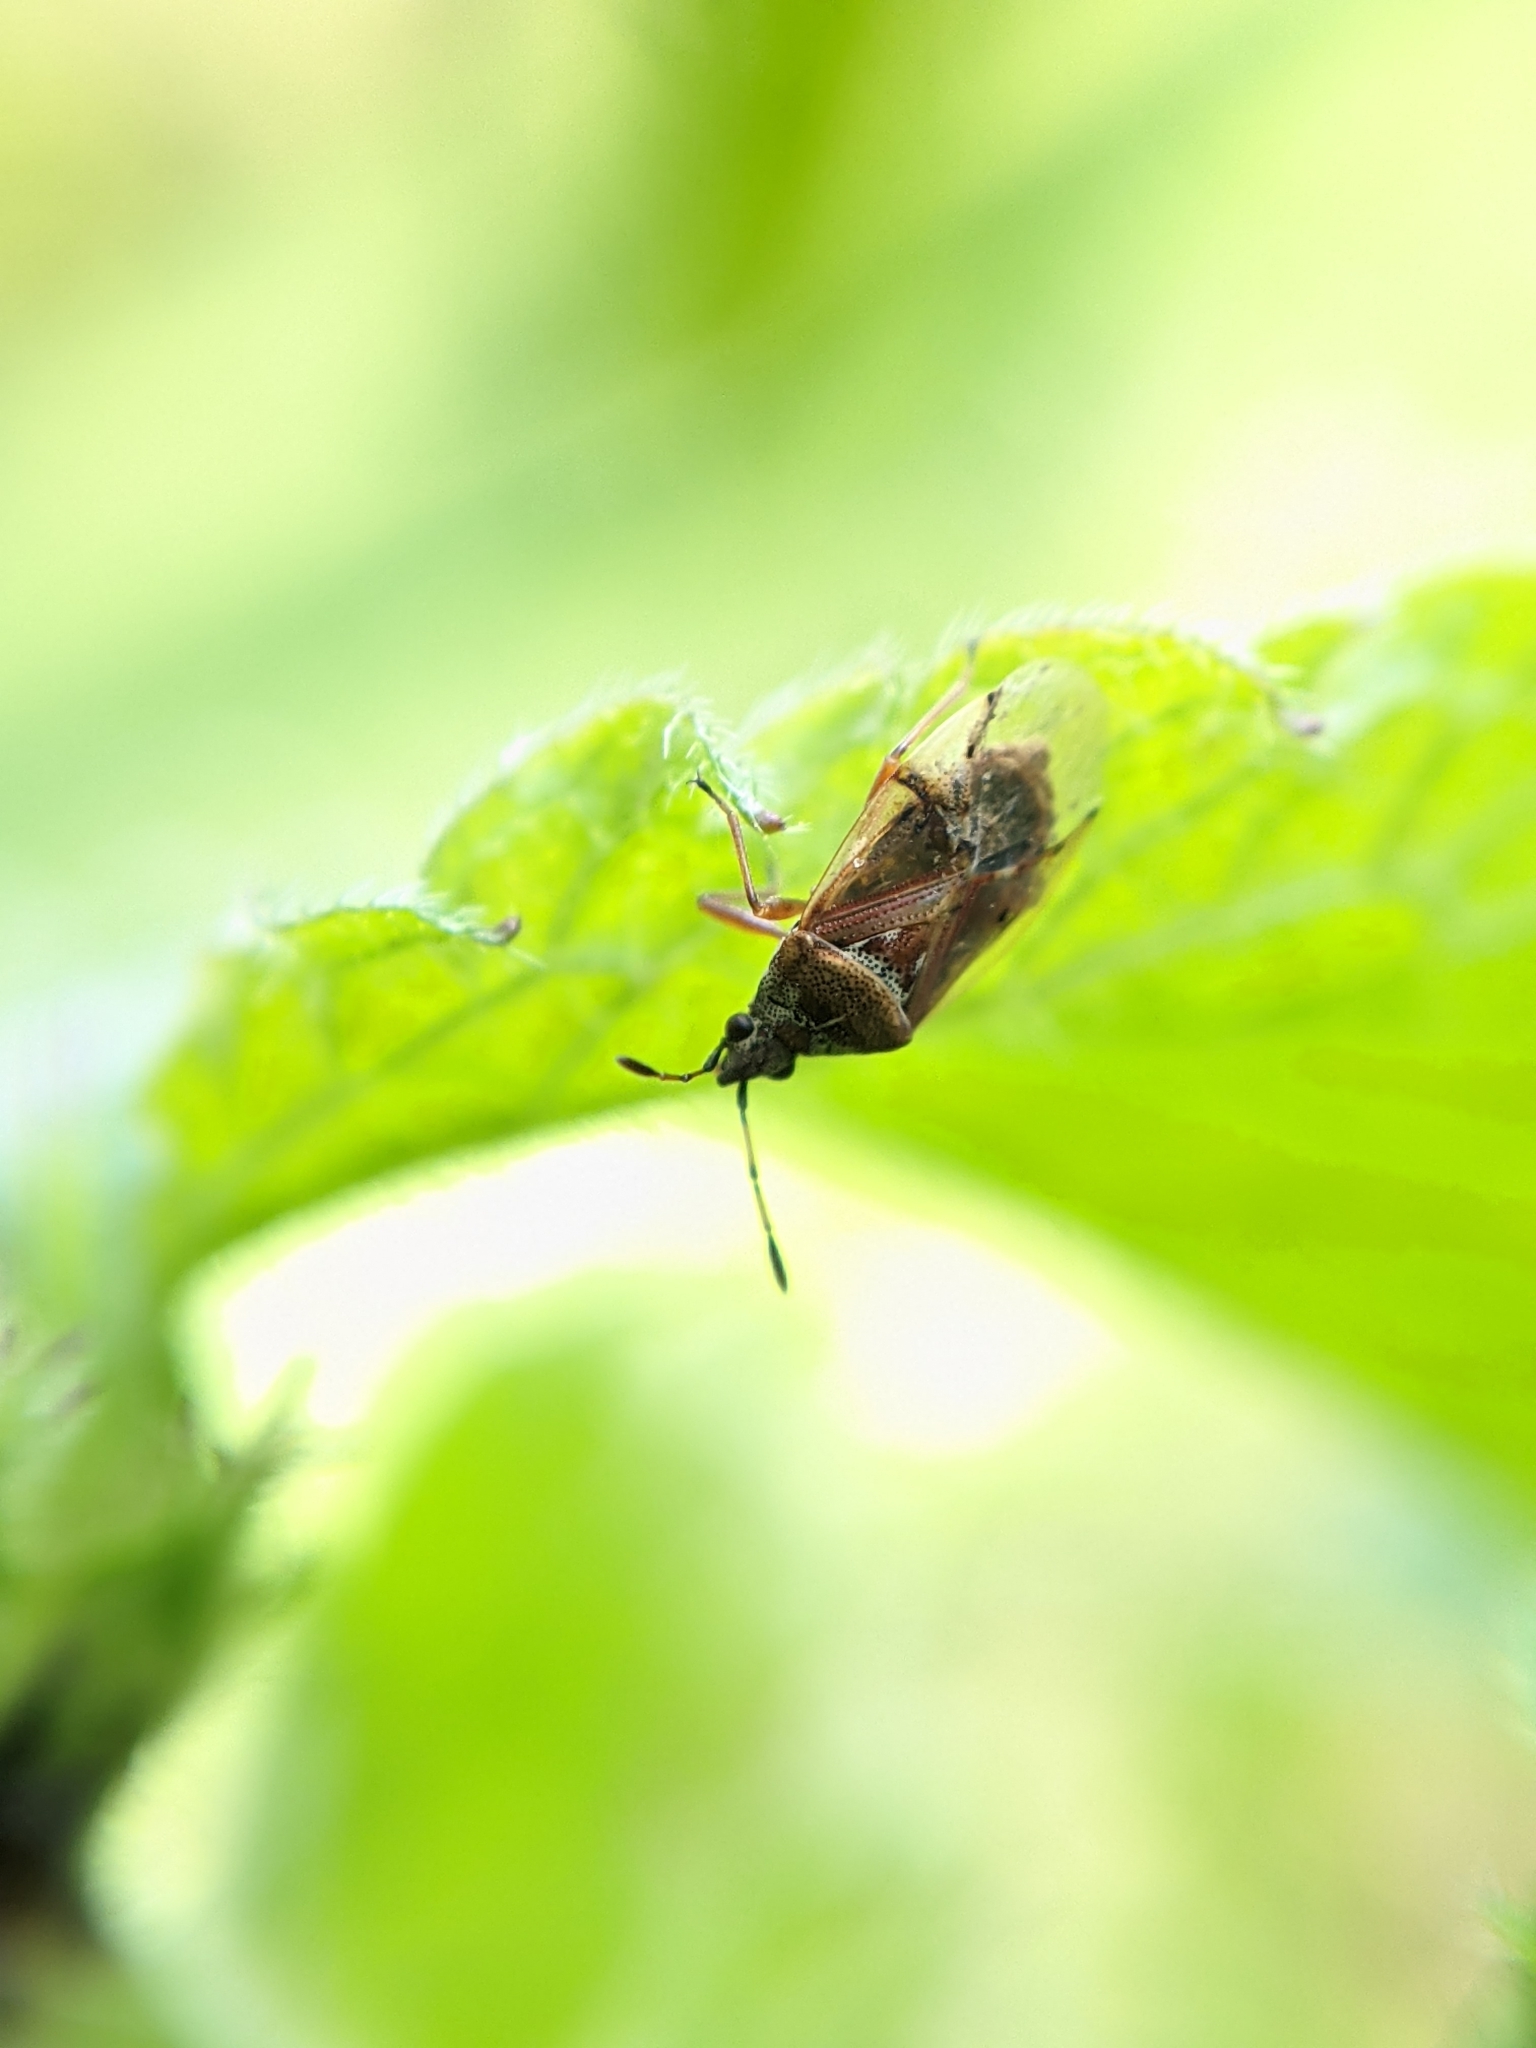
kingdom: Animalia
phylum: Arthropoda
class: Insecta
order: Hemiptera
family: Lygaeidae
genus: Kleidocerys
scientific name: Kleidocerys resedae
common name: Birch catkin bug
